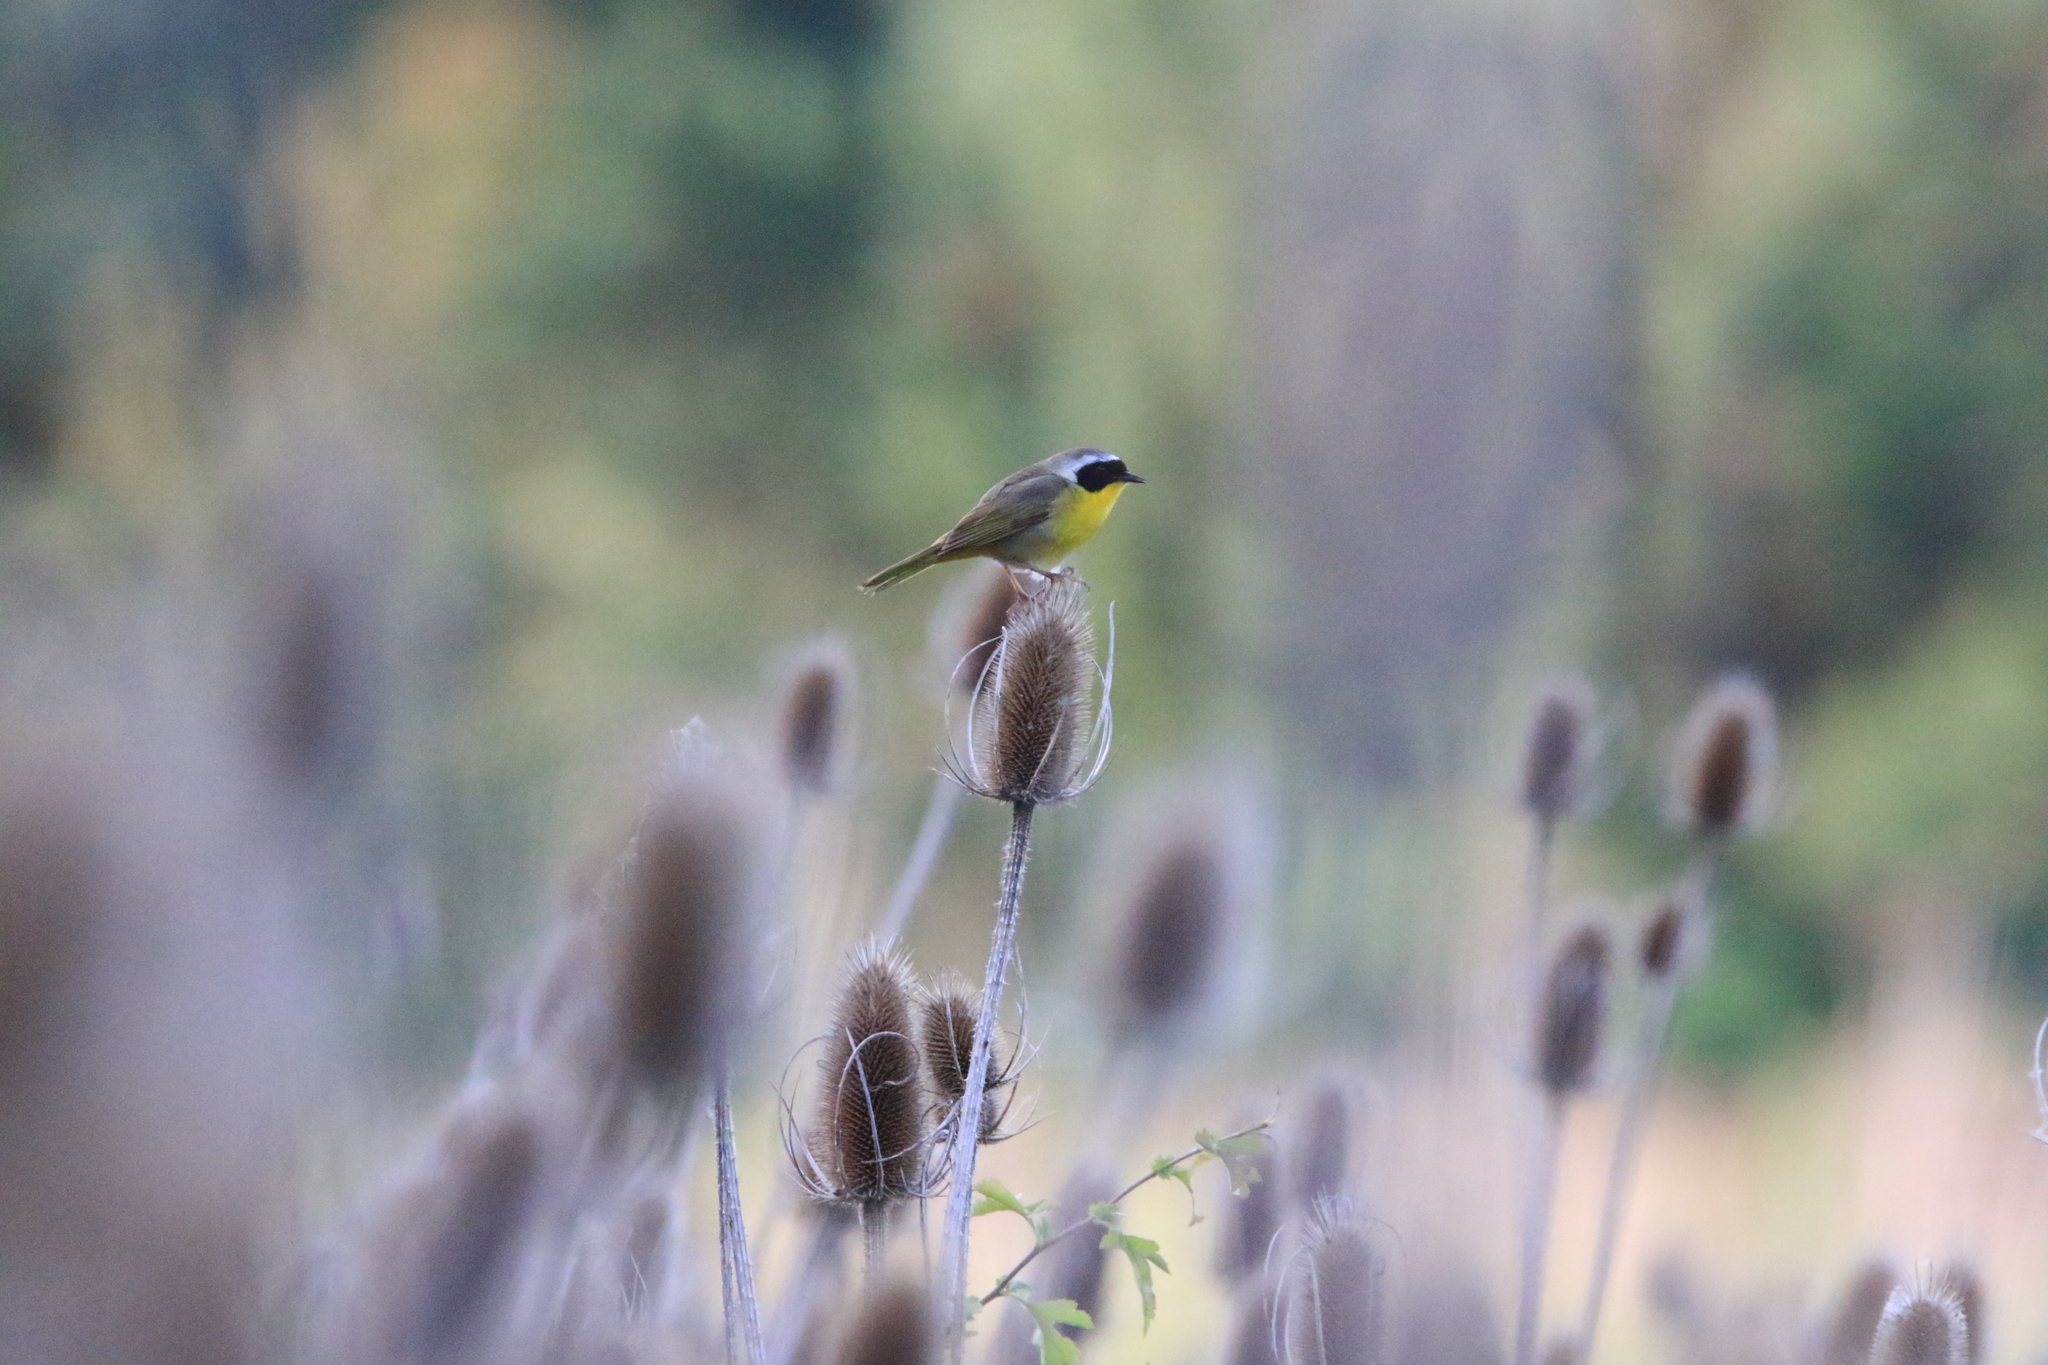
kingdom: Animalia
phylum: Chordata
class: Aves
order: Passeriformes
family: Parulidae
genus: Geothlypis
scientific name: Geothlypis trichas
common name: Common yellowthroat
